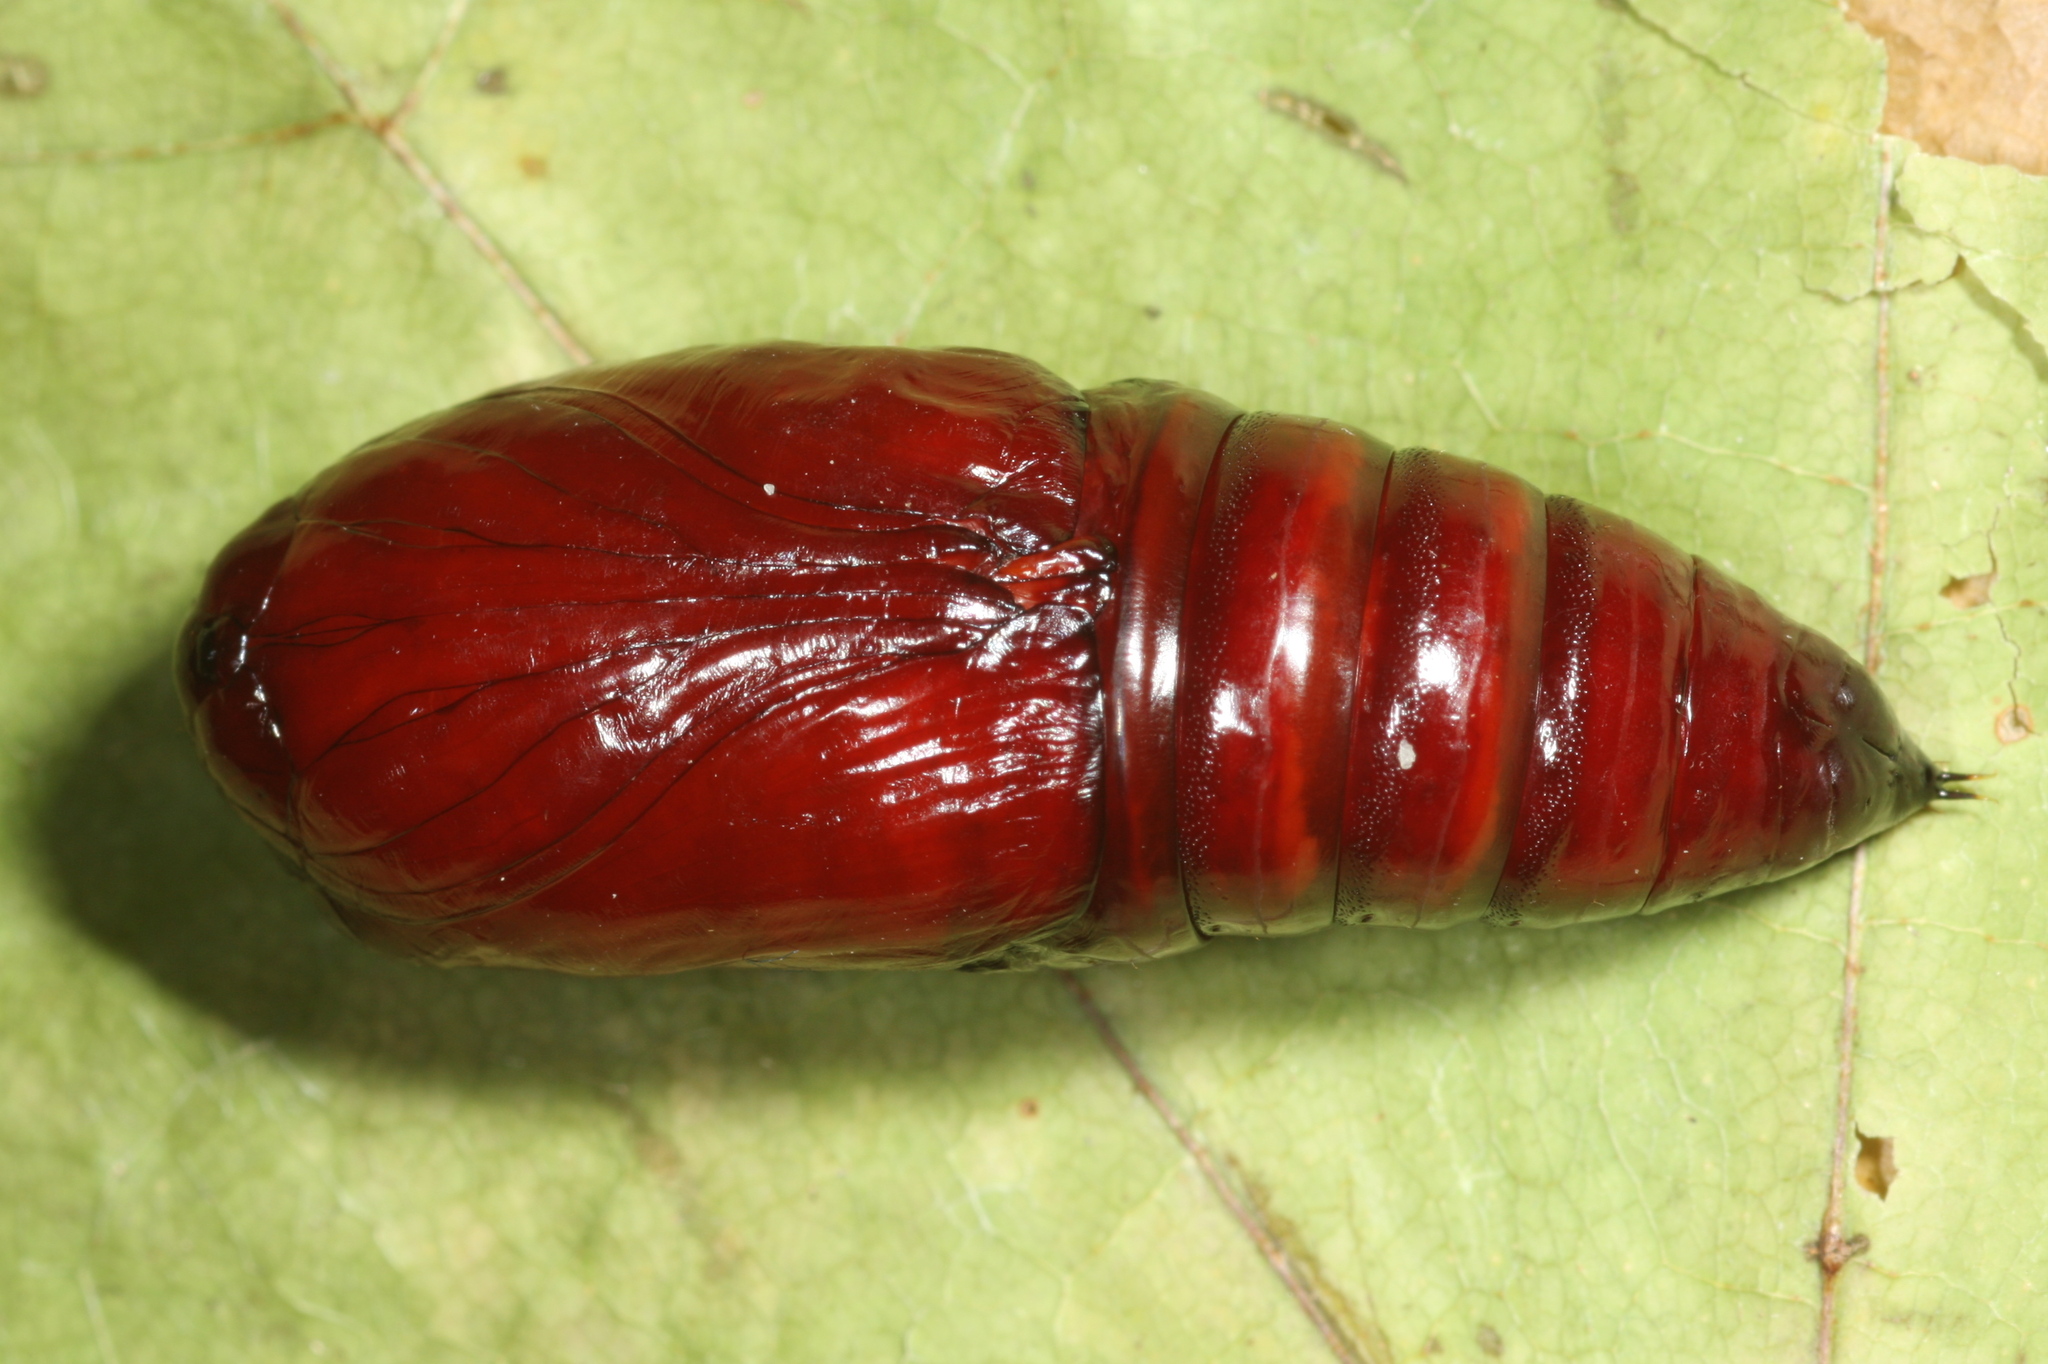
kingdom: Animalia
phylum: Arthropoda
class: Insecta
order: Lepidoptera
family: Noctuidae
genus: Noctua
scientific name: Noctua fimbriata
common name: Broad-bordered yellow underwing
